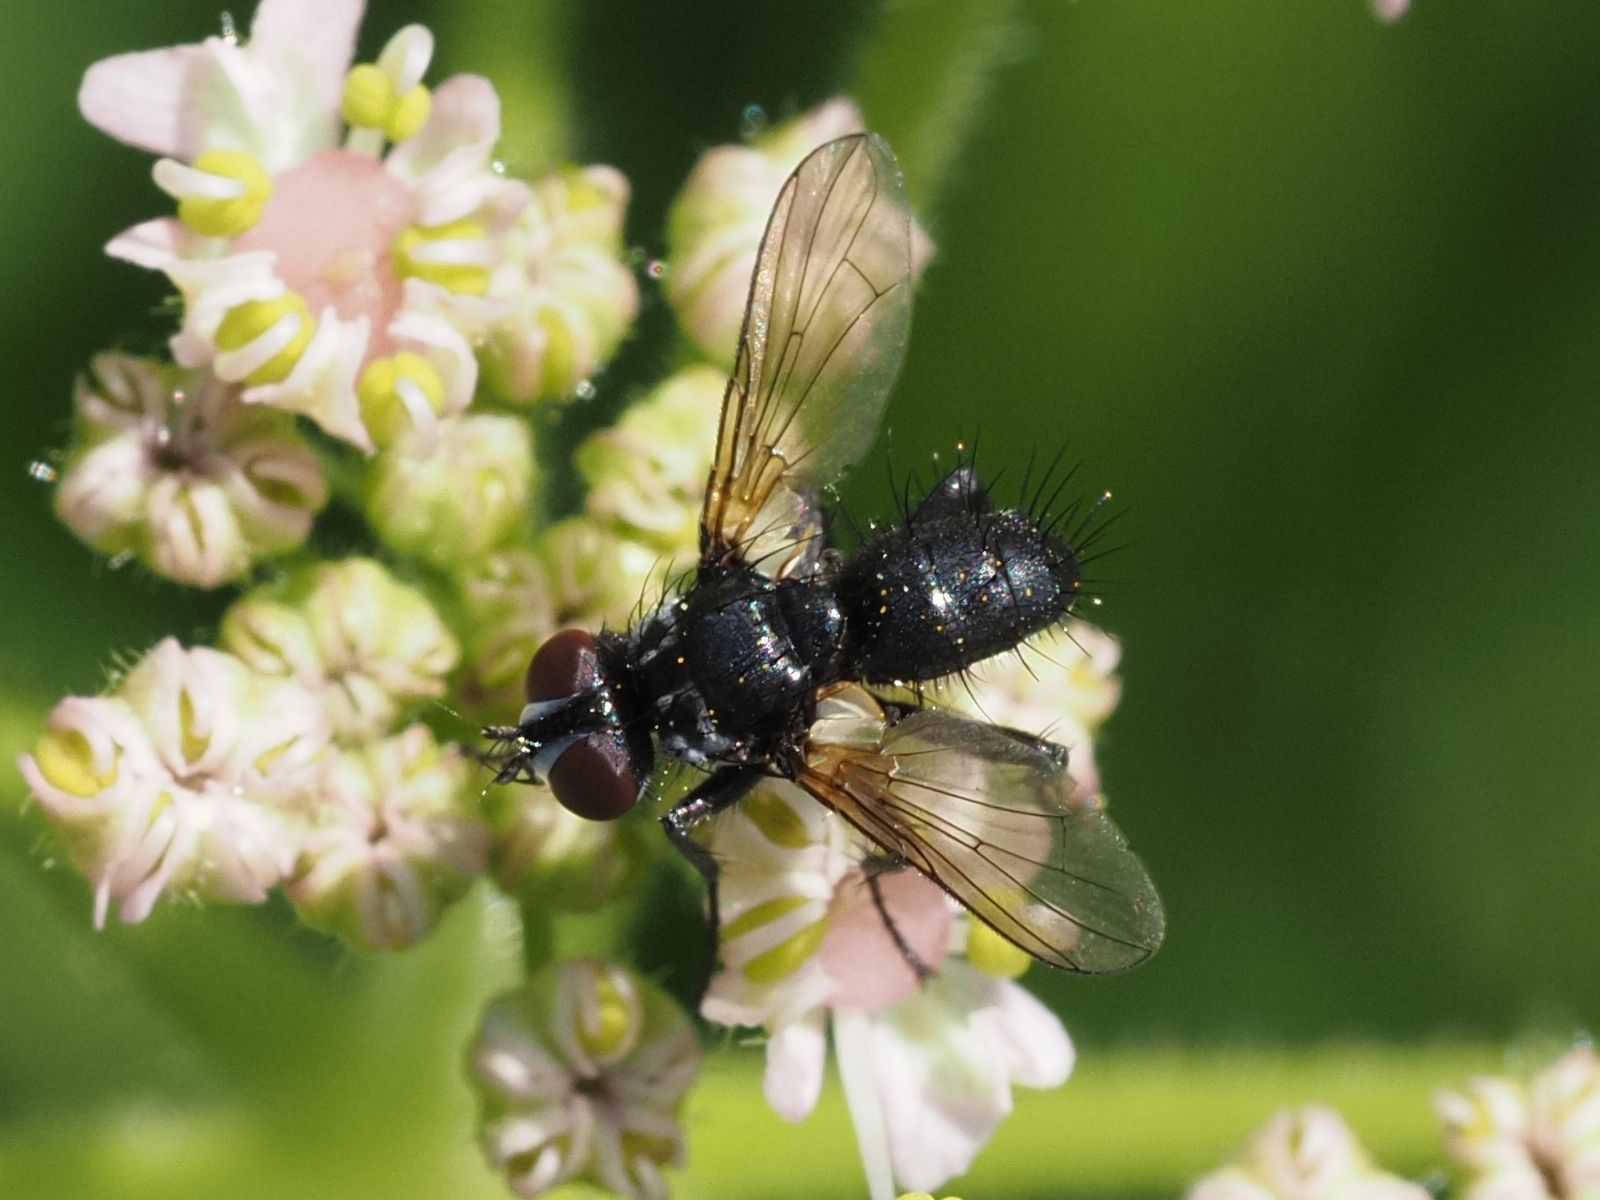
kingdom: Animalia
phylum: Arthropoda
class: Insecta
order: Diptera
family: Tachinidae
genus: Phania
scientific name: Phania funesta
